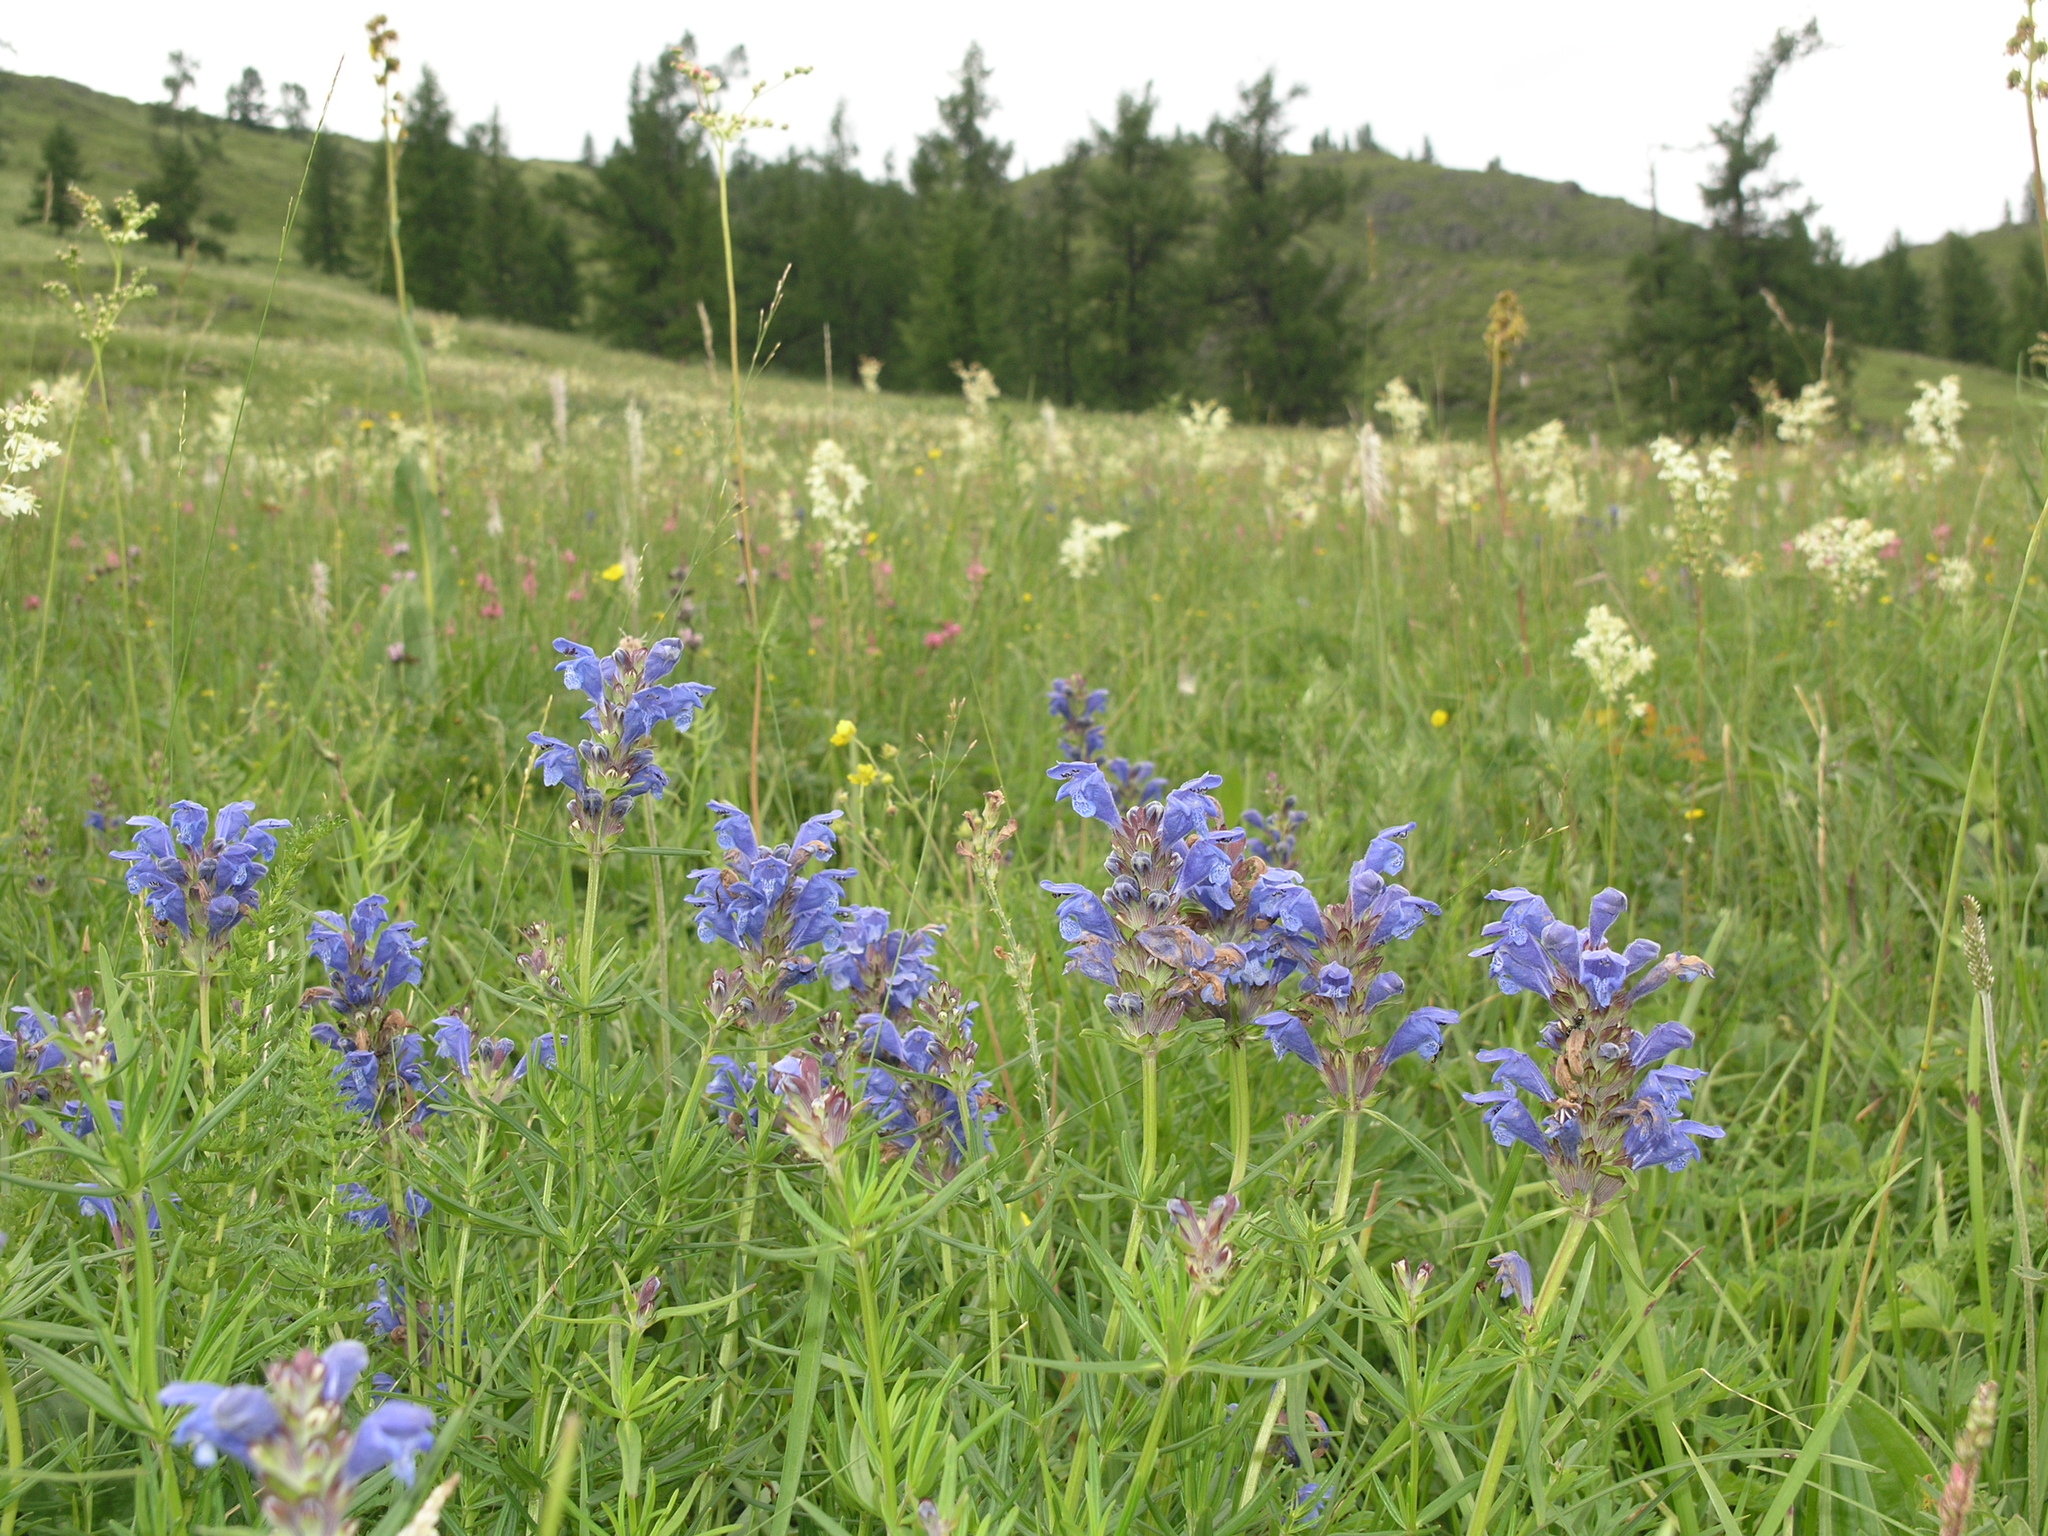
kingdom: Plantae
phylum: Tracheophyta
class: Magnoliopsida
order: Lamiales
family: Lamiaceae
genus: Dracocephalum
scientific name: Dracocephalum ruyschiana
